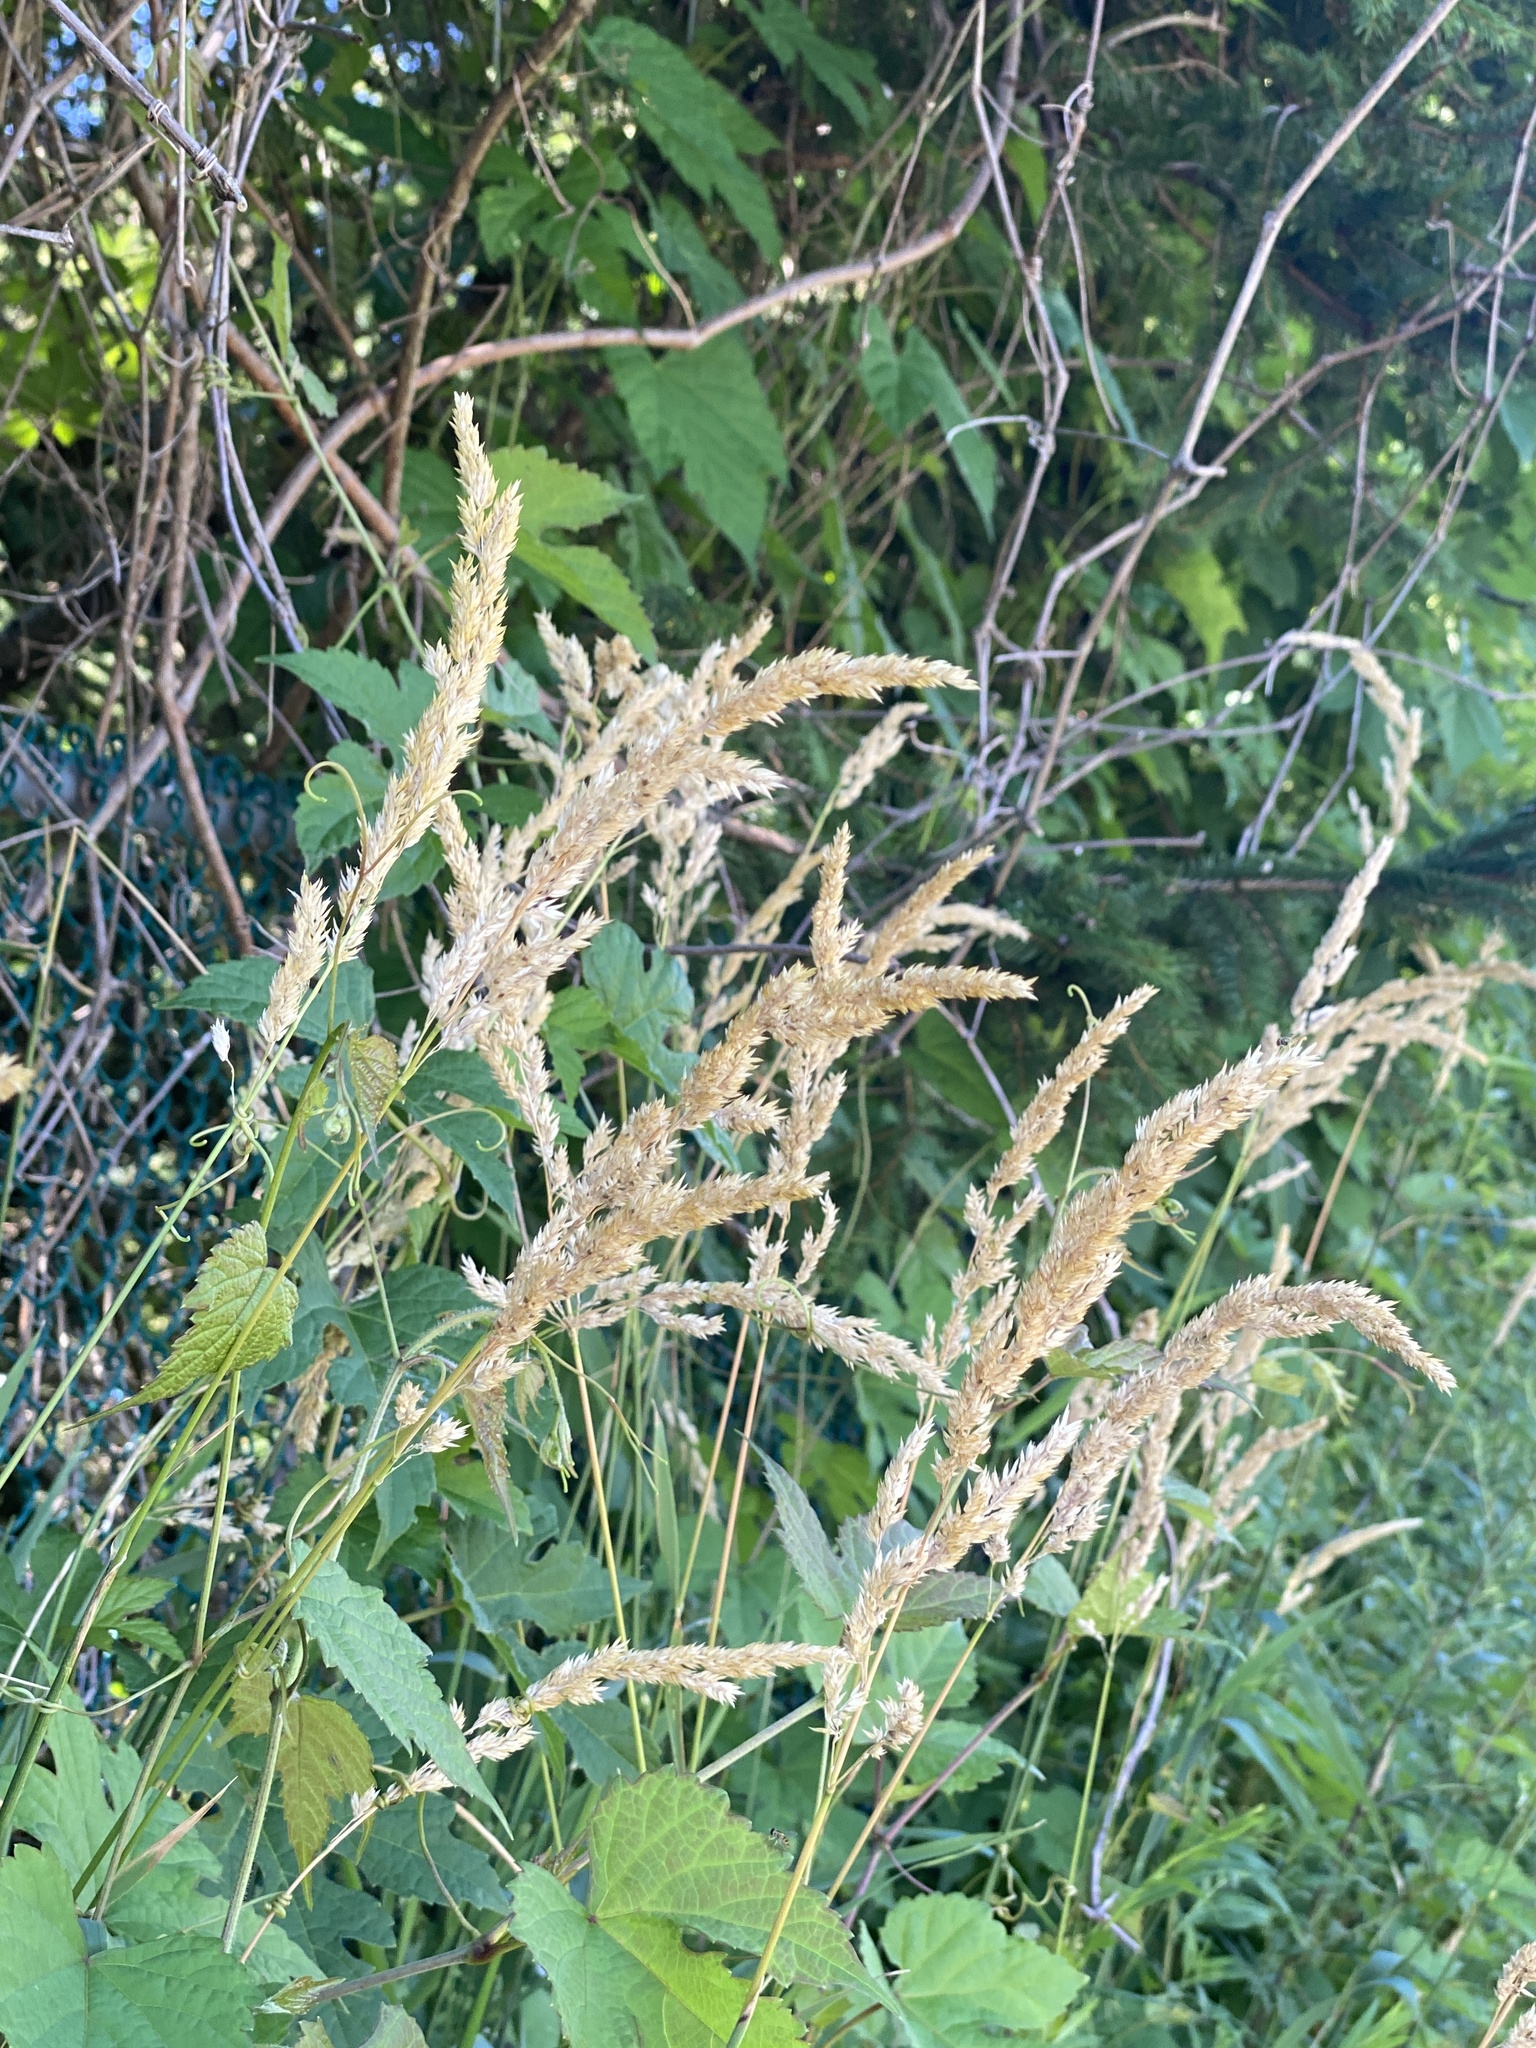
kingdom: Plantae
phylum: Tracheophyta
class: Liliopsida
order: Poales
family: Poaceae
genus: Phalaris
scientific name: Phalaris arundinacea
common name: Reed canary-grass
